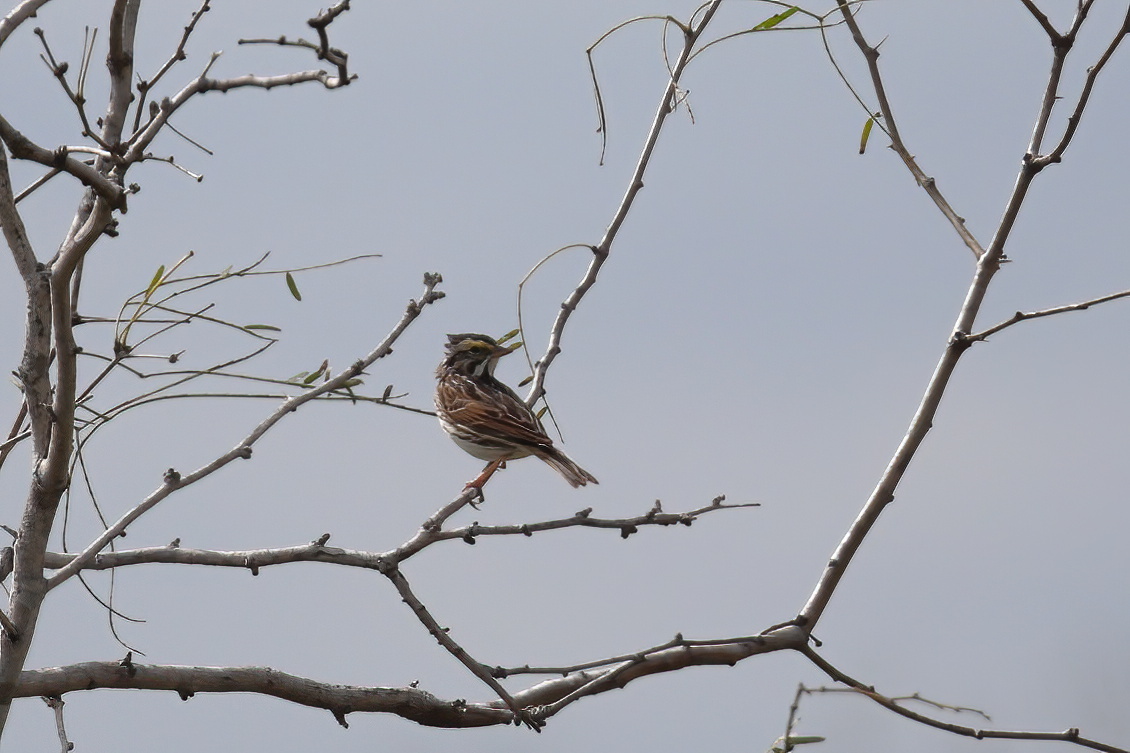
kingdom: Animalia
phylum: Chordata
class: Aves
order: Passeriformes
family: Passerellidae
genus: Passerculus
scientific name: Passerculus sandwichensis
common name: Savannah sparrow
